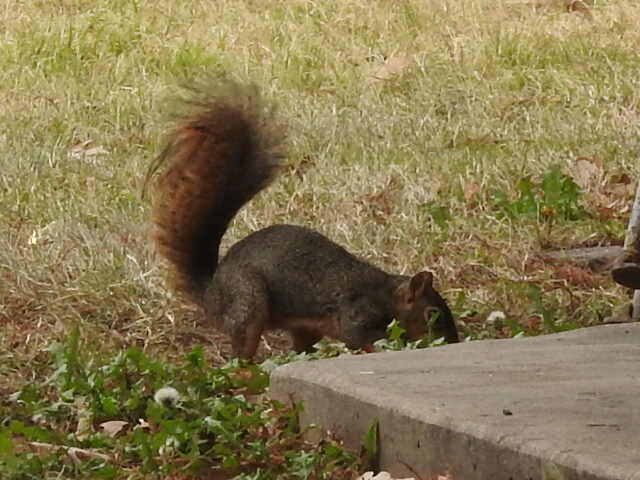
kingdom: Animalia
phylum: Chordata
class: Mammalia
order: Rodentia
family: Sciuridae
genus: Sciurus
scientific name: Sciurus niger
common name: Fox squirrel
